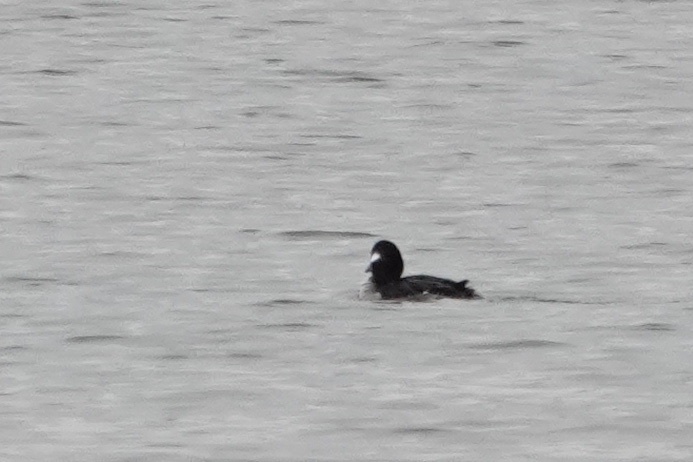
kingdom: Animalia
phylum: Chordata
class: Aves
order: Anseriformes
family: Anatidae
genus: Bucephala
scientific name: Bucephala albeola
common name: Bufflehead
